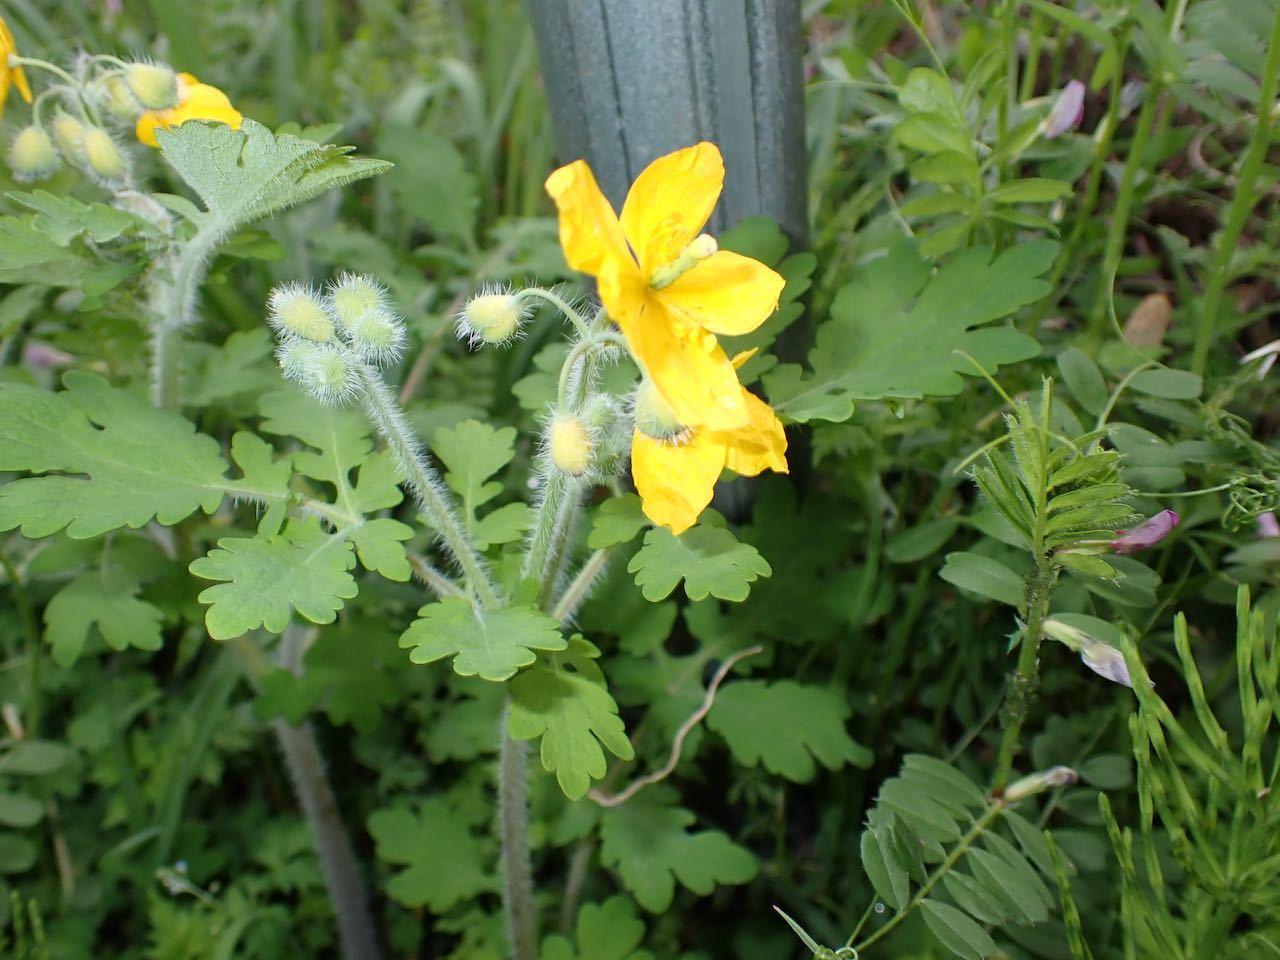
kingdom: Plantae
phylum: Tracheophyta
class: Magnoliopsida
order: Ranunculales
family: Papaveraceae
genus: Chelidonium
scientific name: Chelidonium majus
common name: Greater celandine
